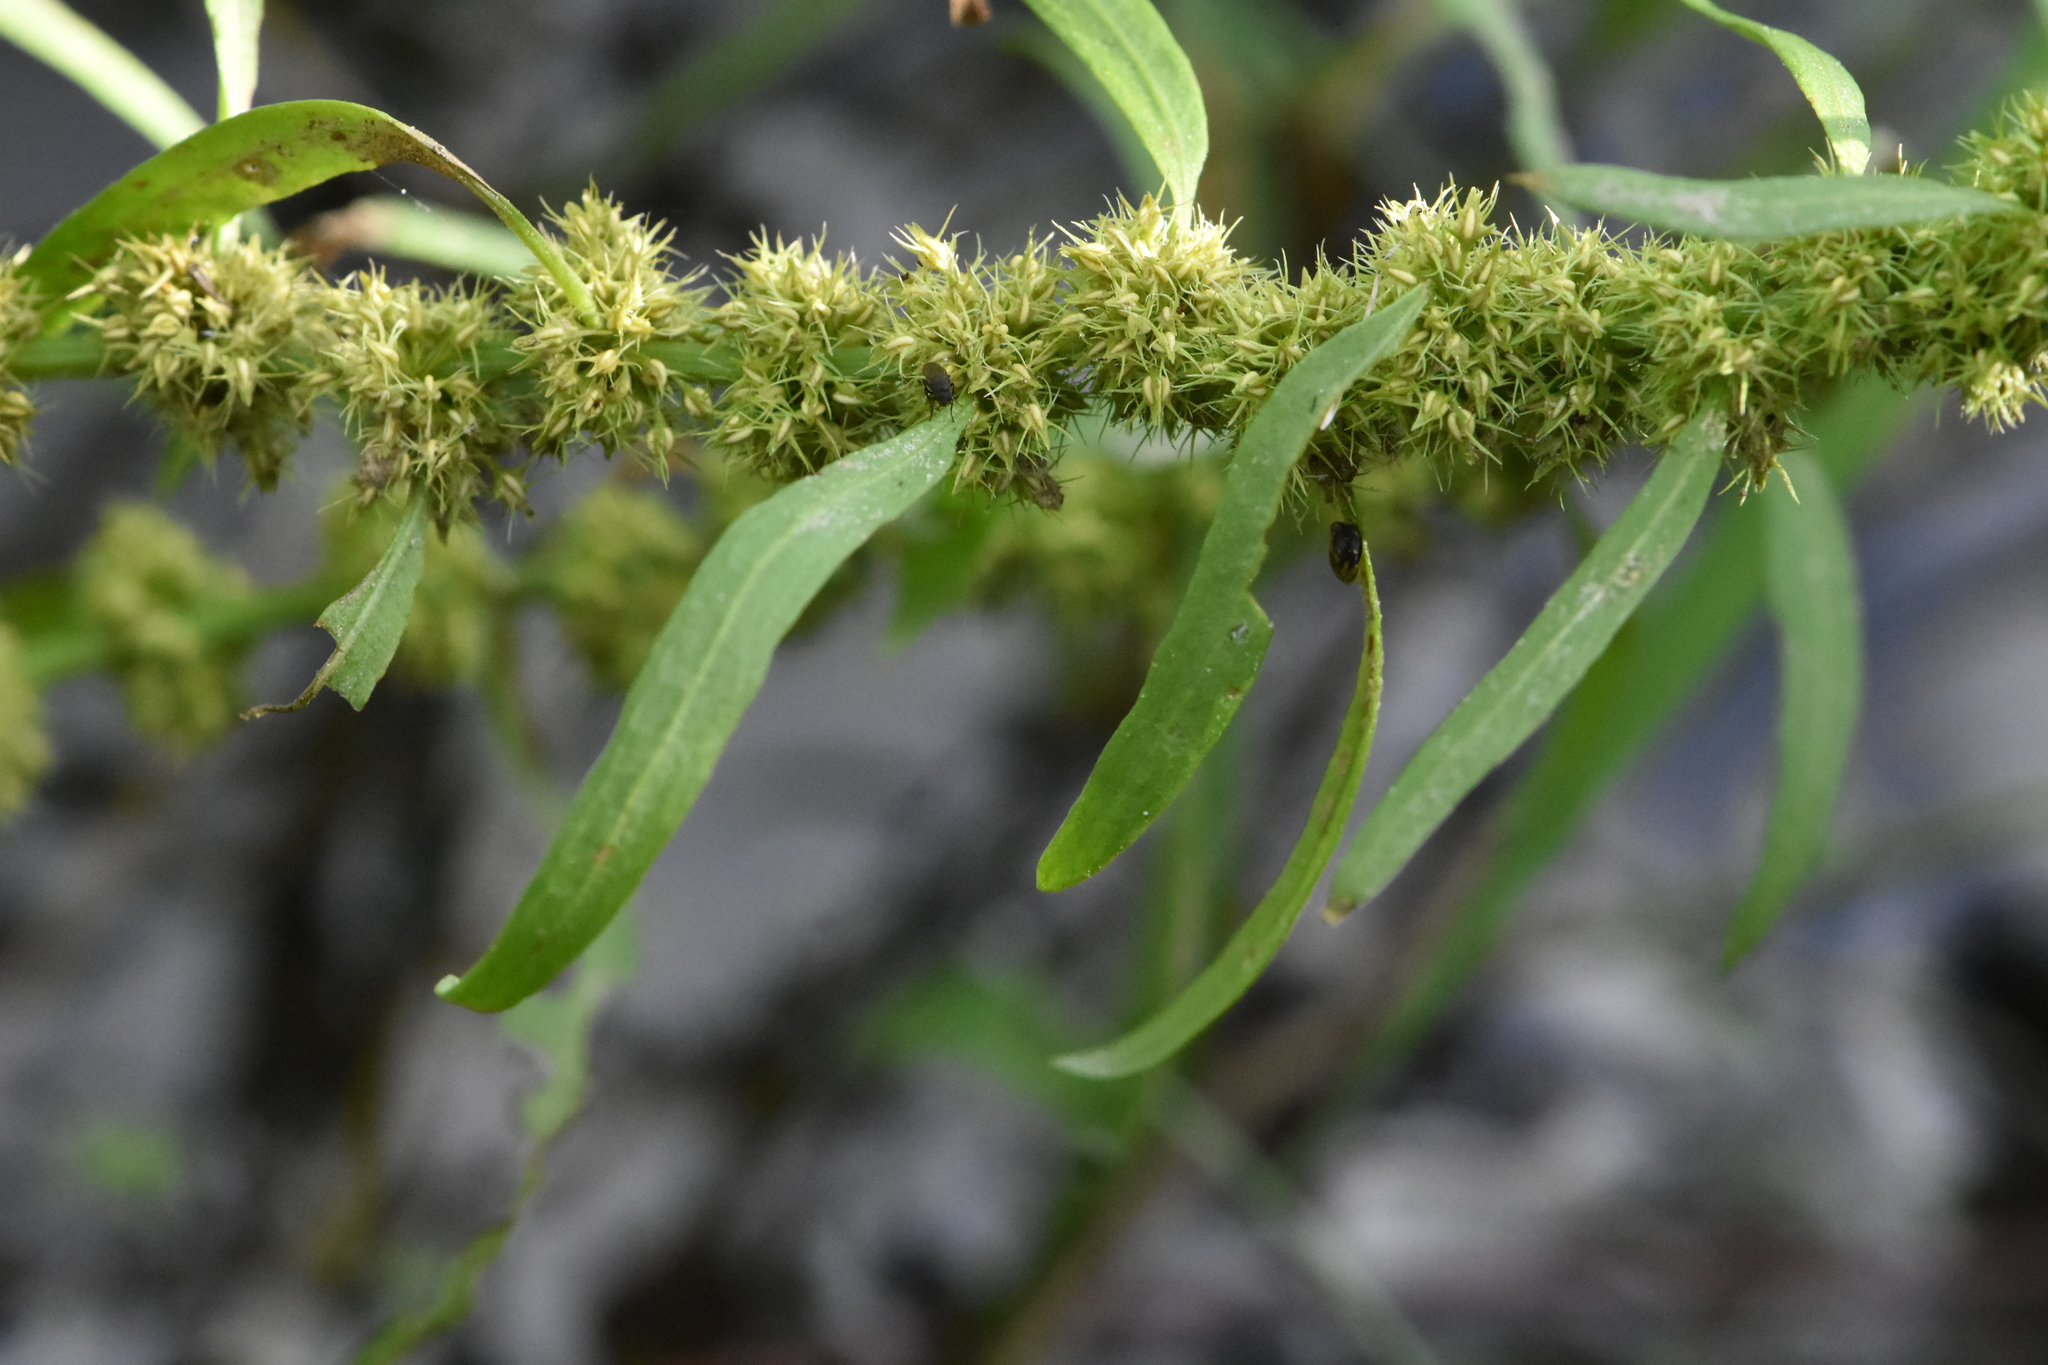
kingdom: Plantae
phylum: Tracheophyta
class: Magnoliopsida
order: Caryophyllales
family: Polygonaceae
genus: Rumex
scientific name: Rumex maritimus
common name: Golden dock
